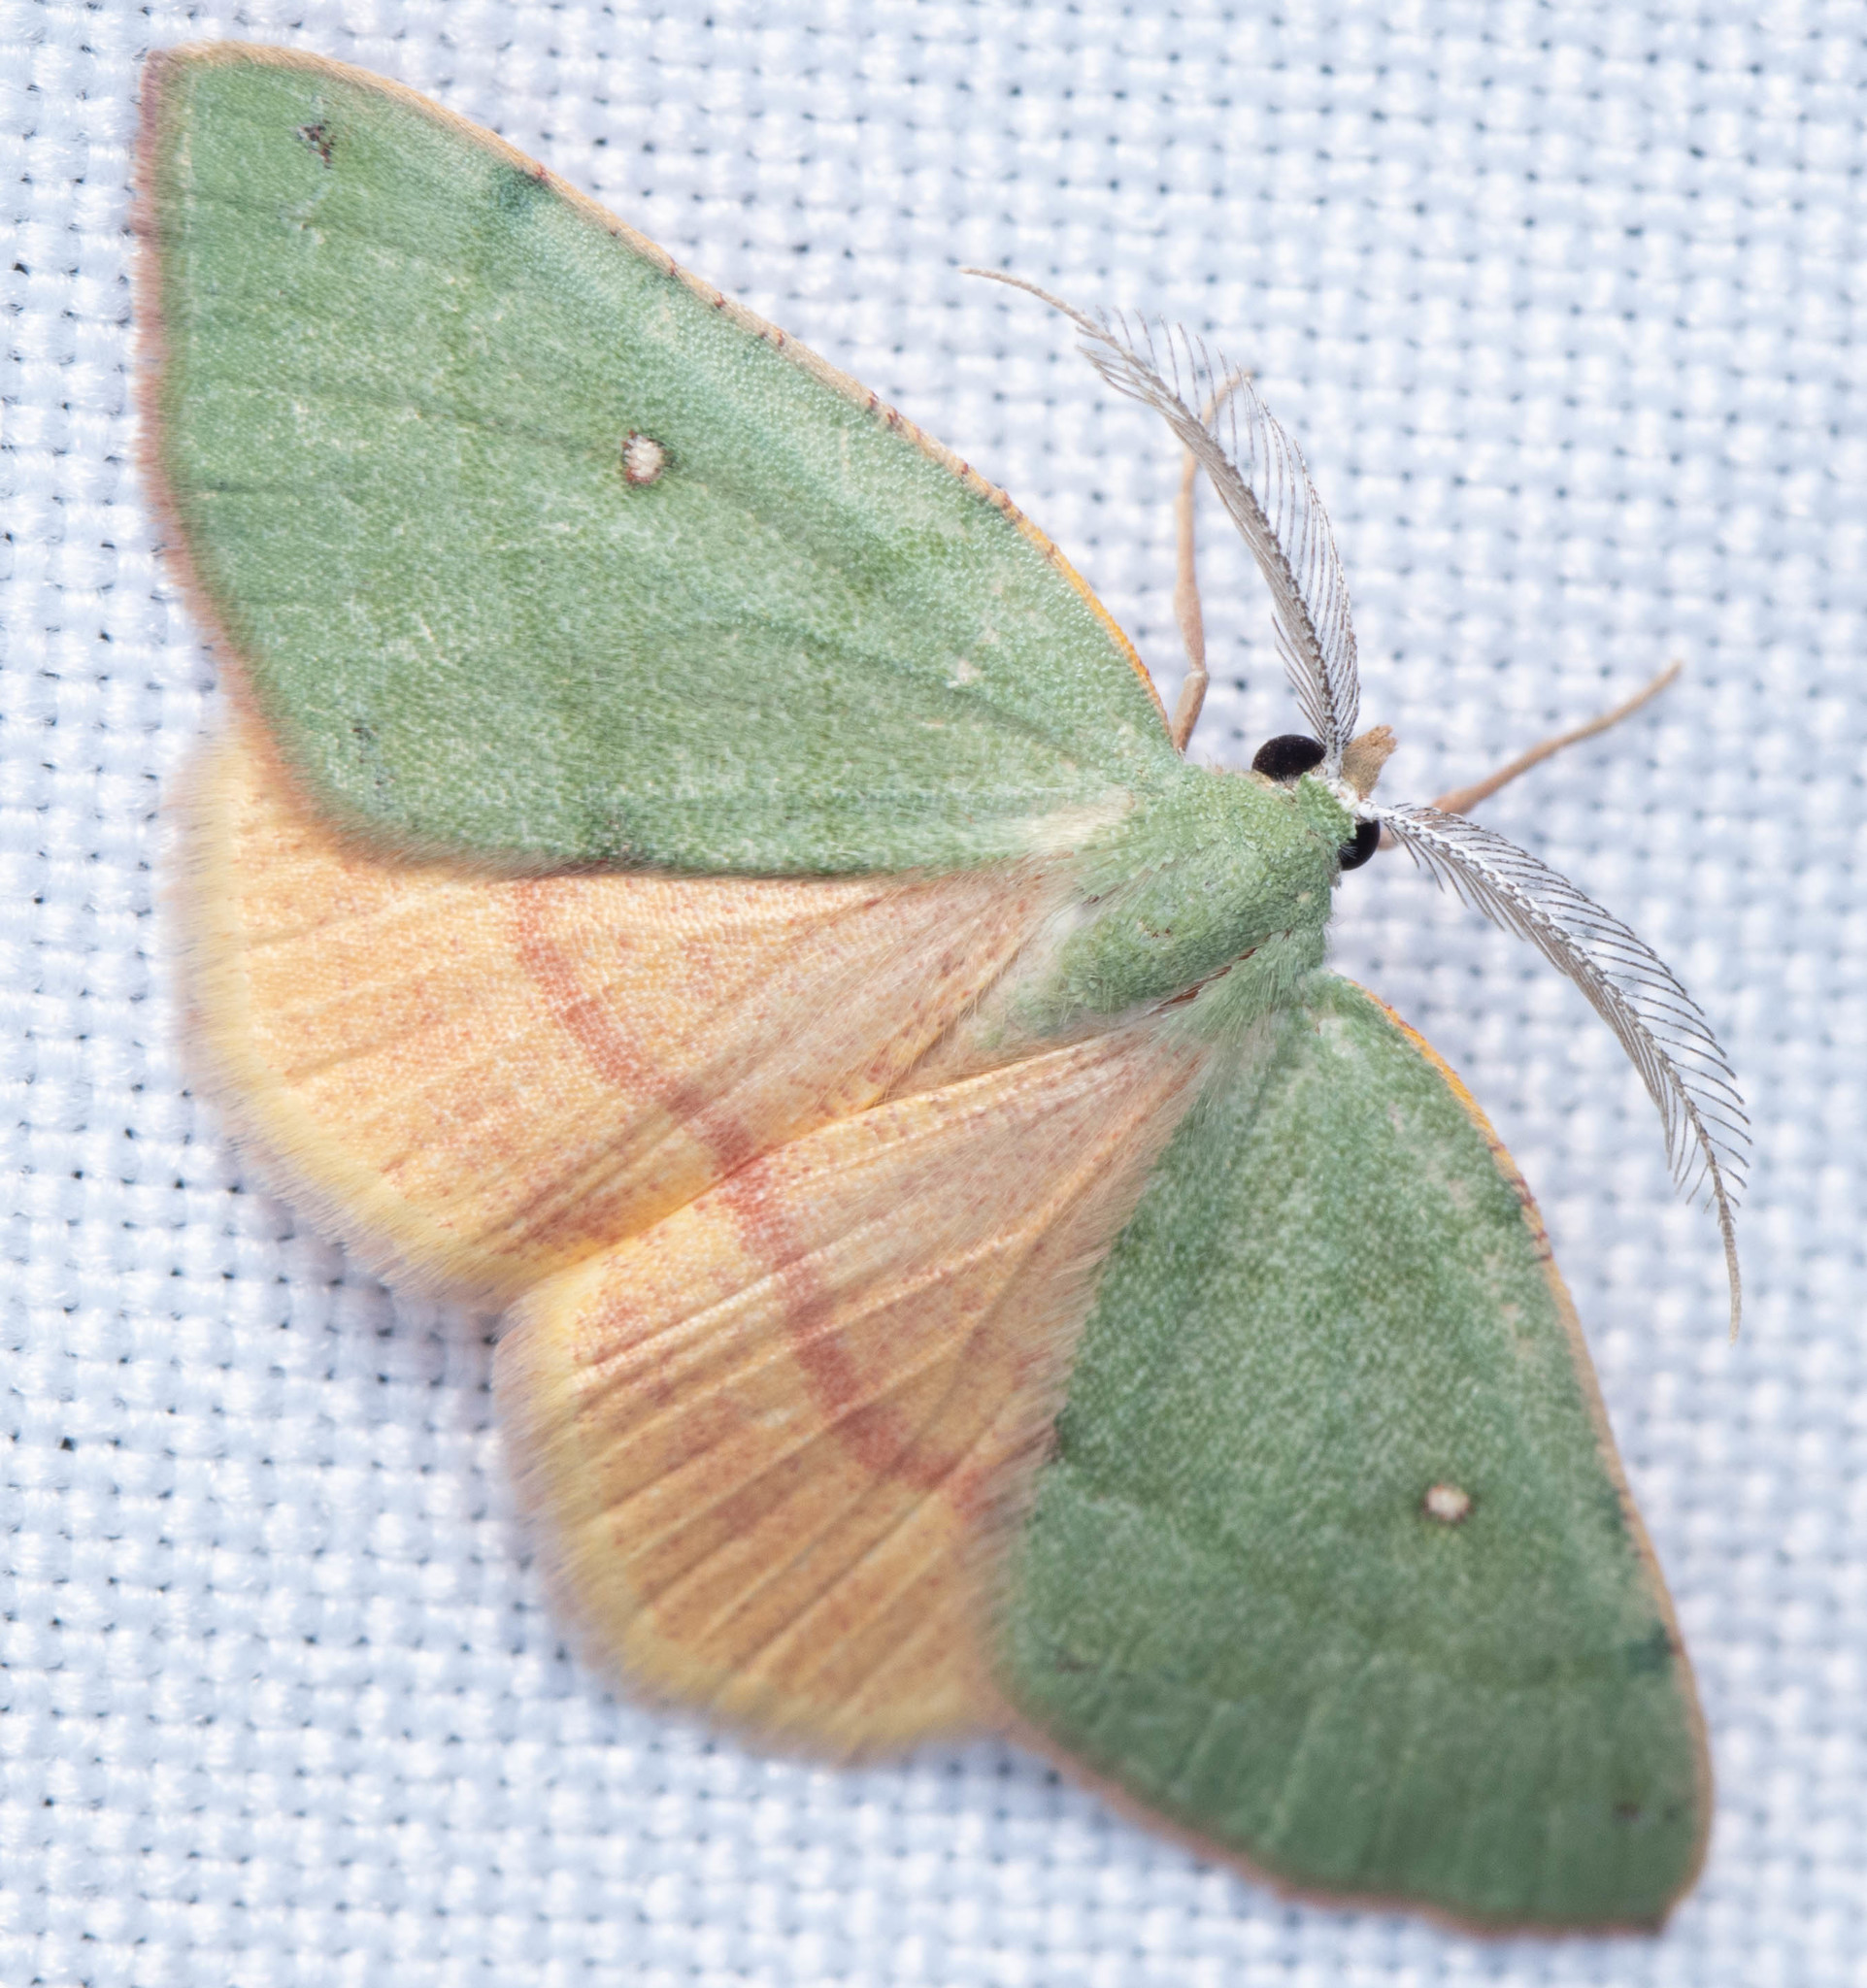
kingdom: Animalia
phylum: Arthropoda
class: Insecta
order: Lepidoptera
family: Geometridae
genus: Chloraspilates
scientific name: Chloraspilates bicoloraria
